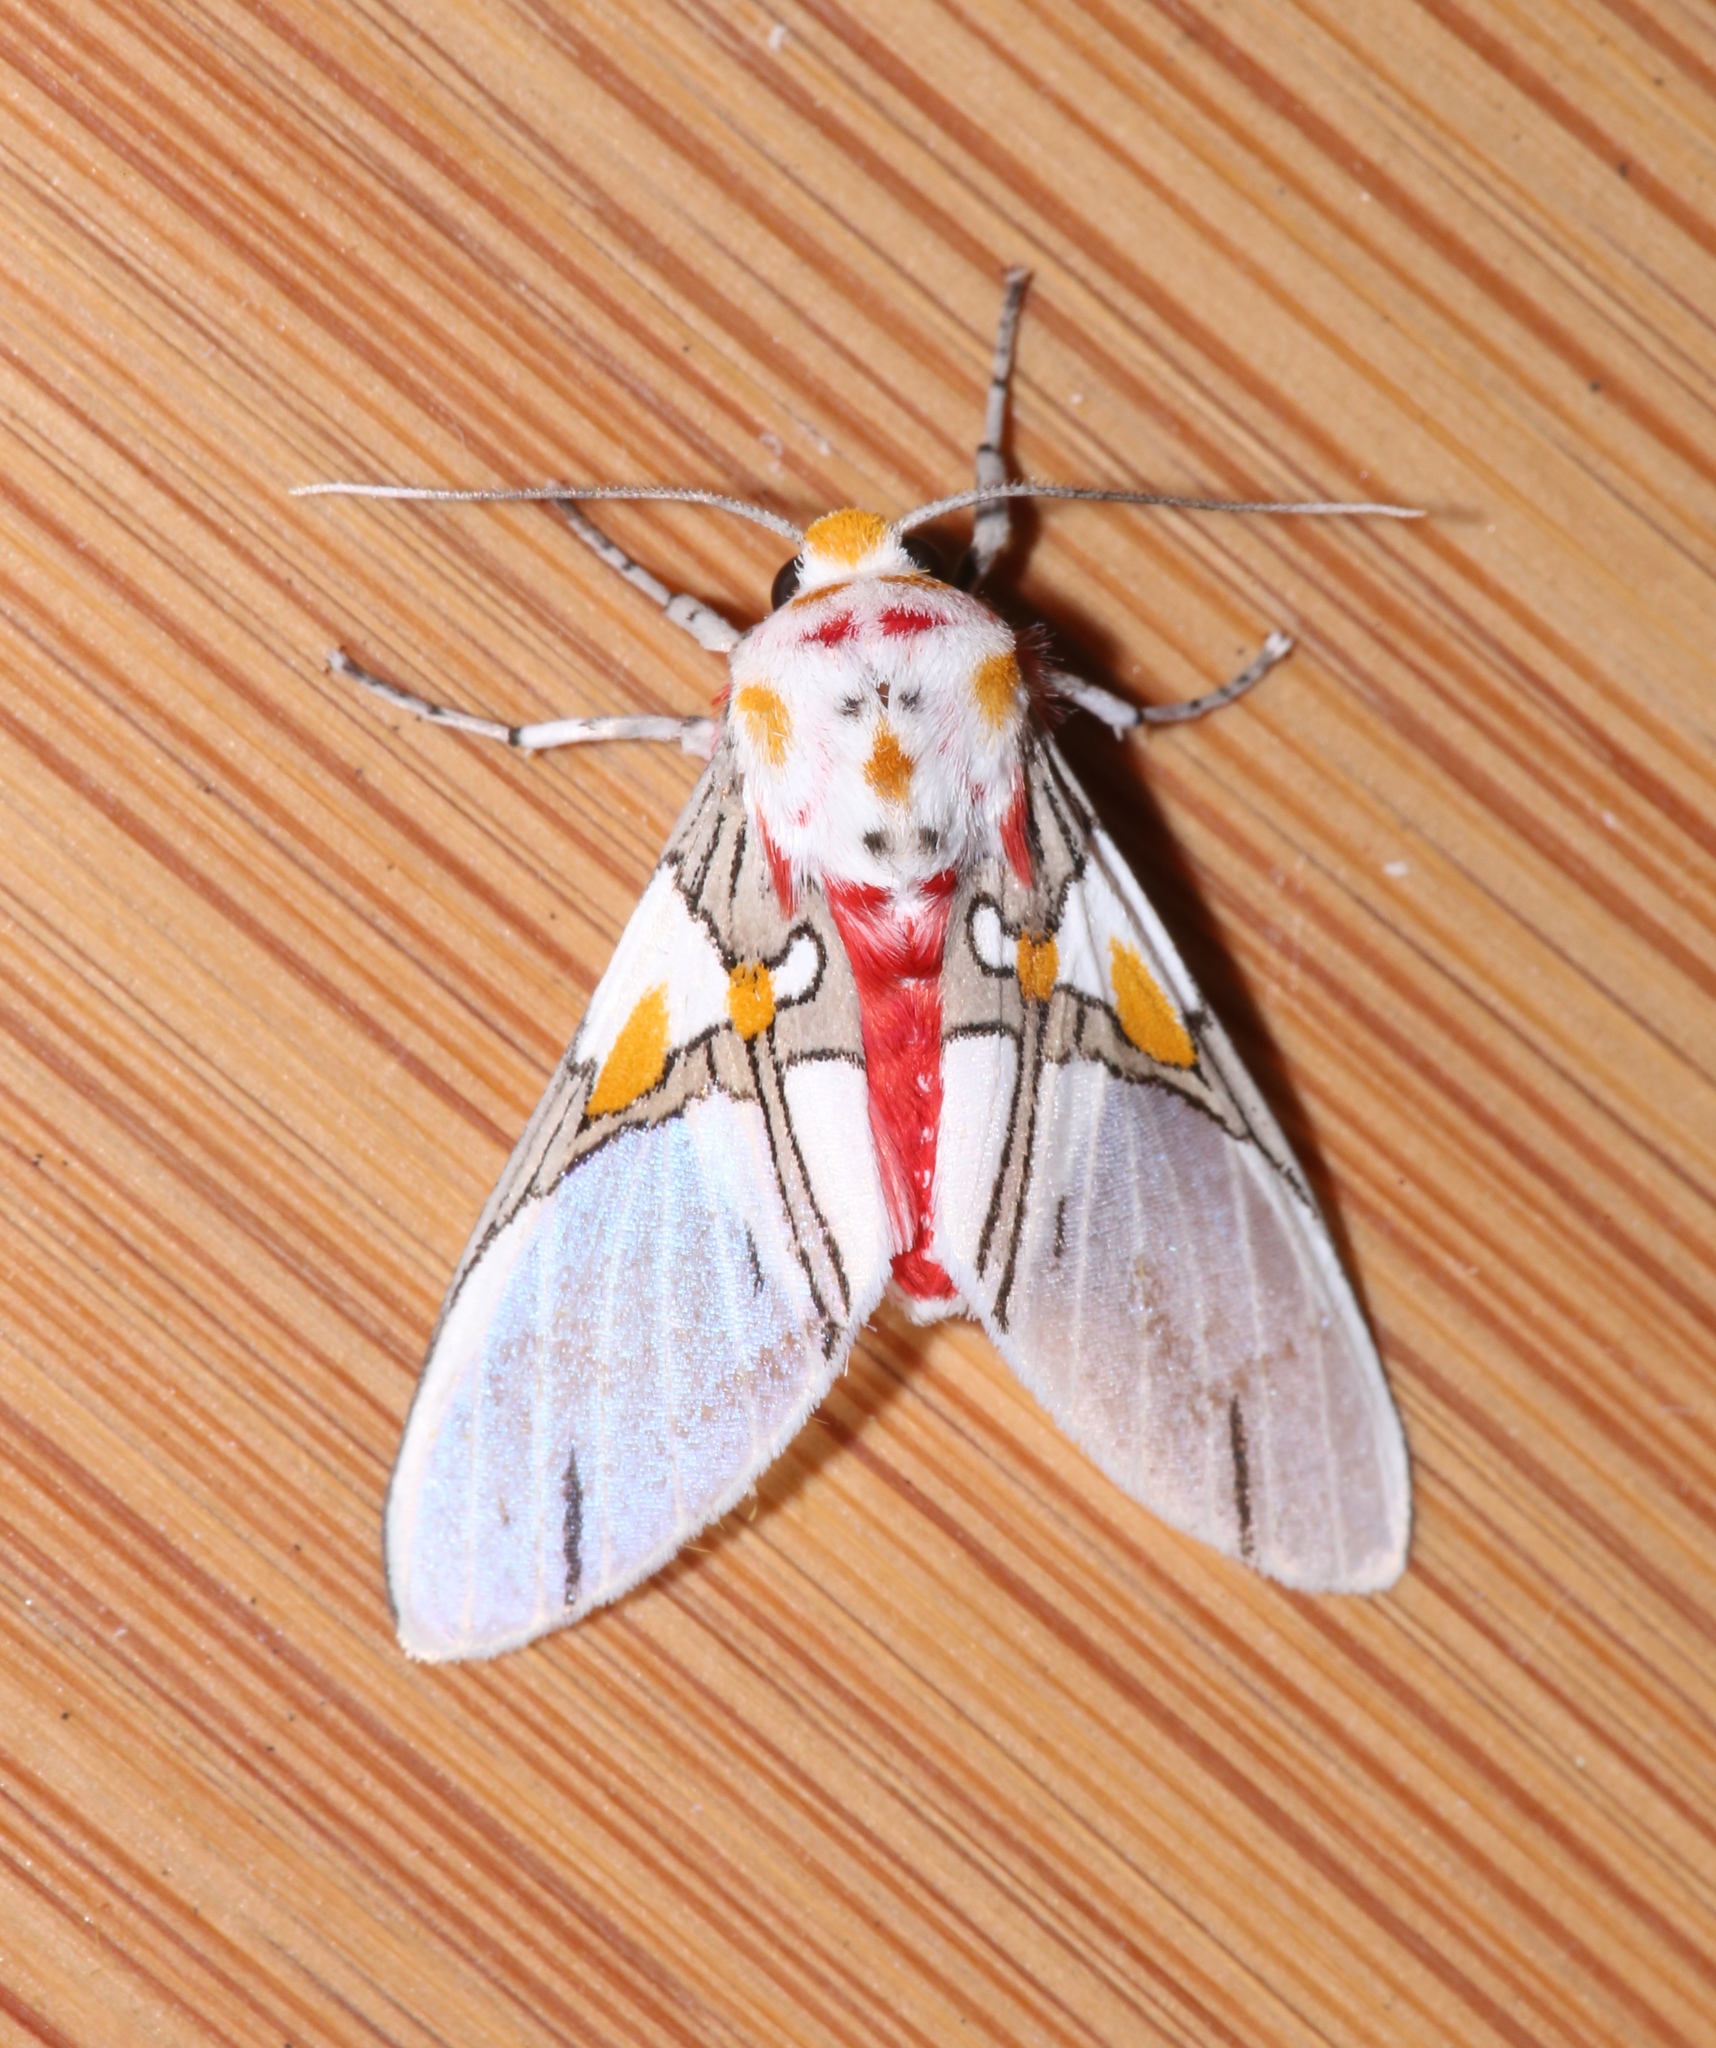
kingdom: Animalia
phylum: Arthropoda
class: Insecta
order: Lepidoptera
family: Erebidae
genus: Idalus
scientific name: Idalus crinis
